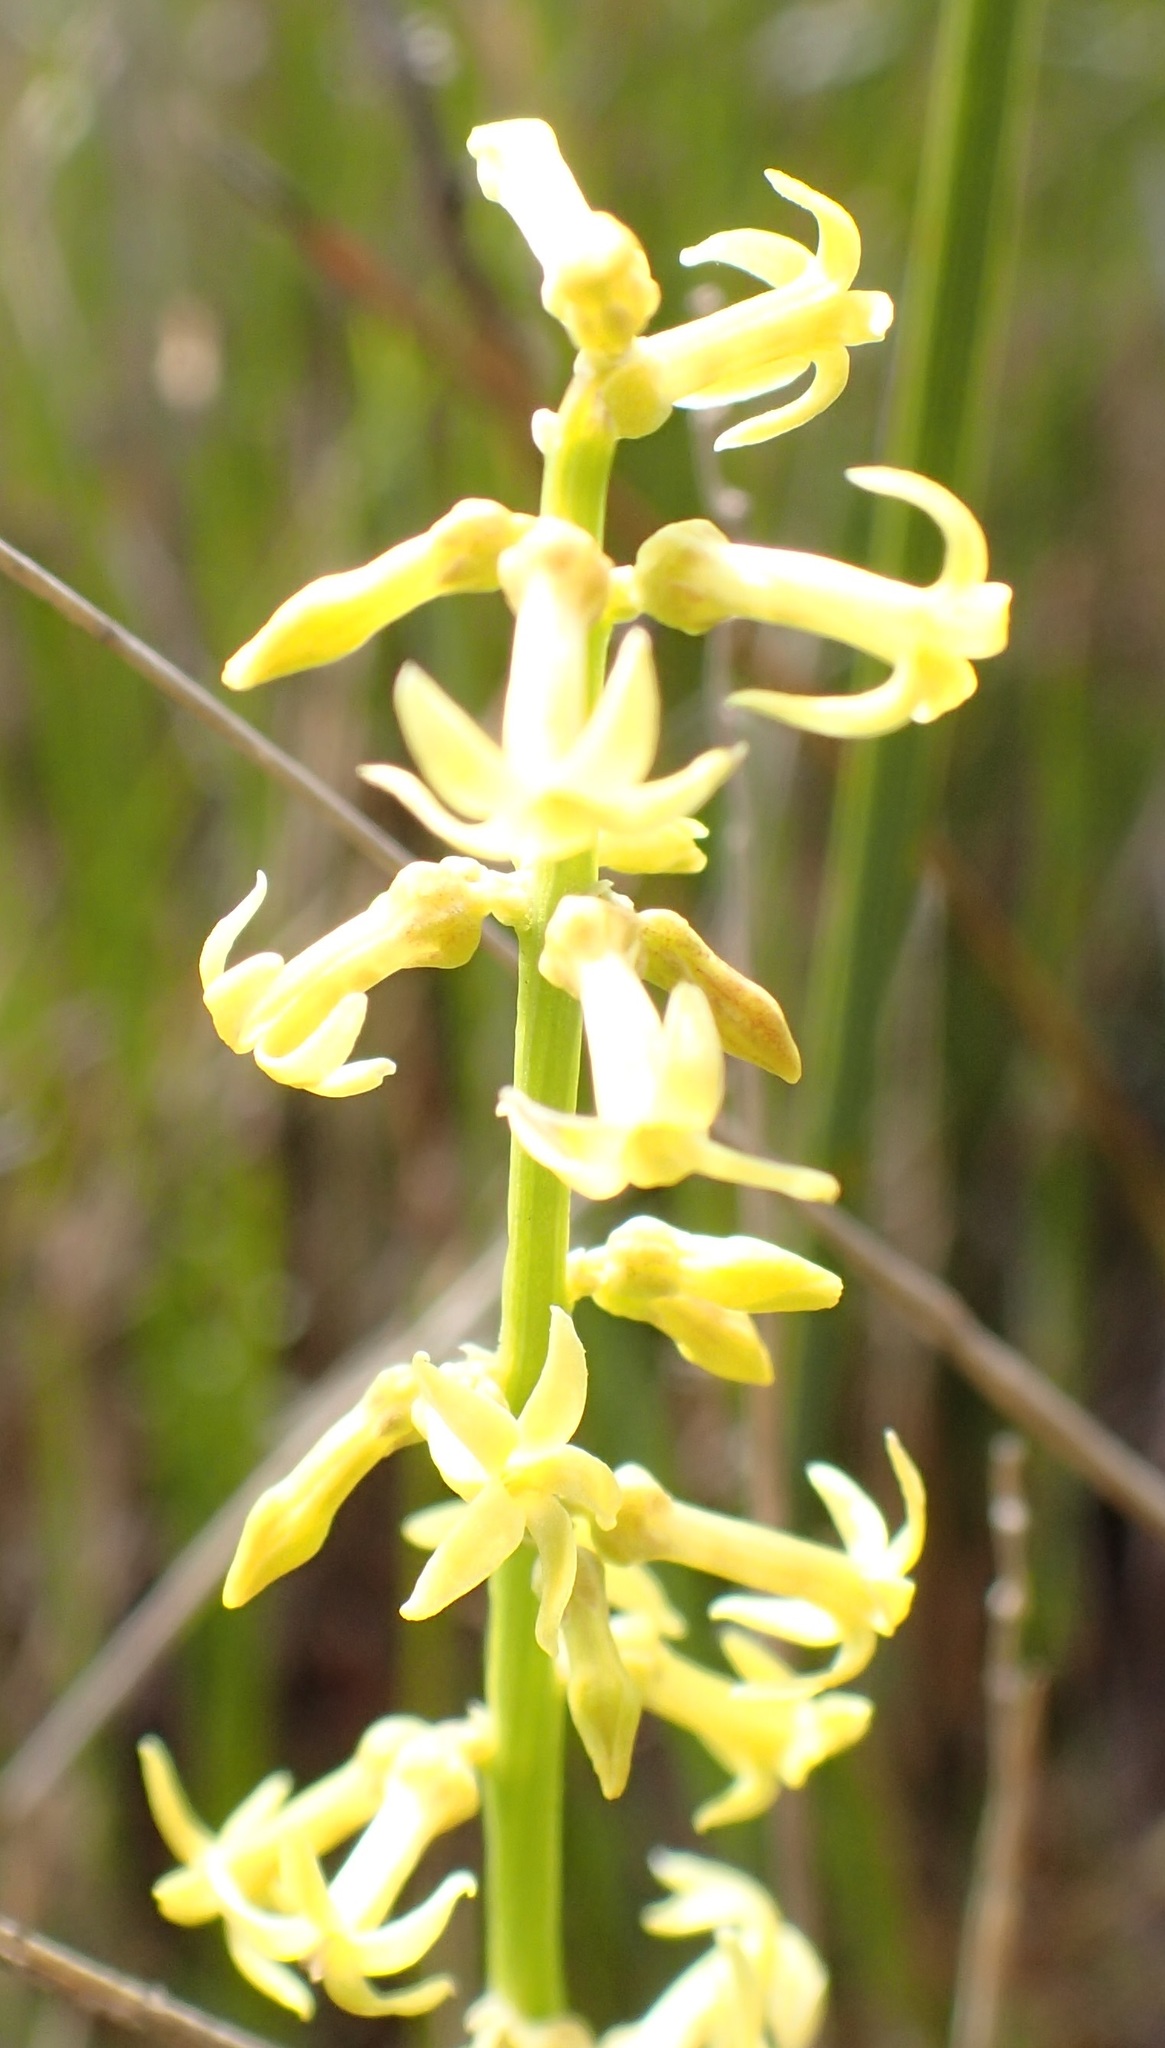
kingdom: Plantae
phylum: Tracheophyta
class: Magnoliopsida
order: Celastrales
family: Celastraceae
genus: Stackhousia
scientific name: Stackhousia viminea
